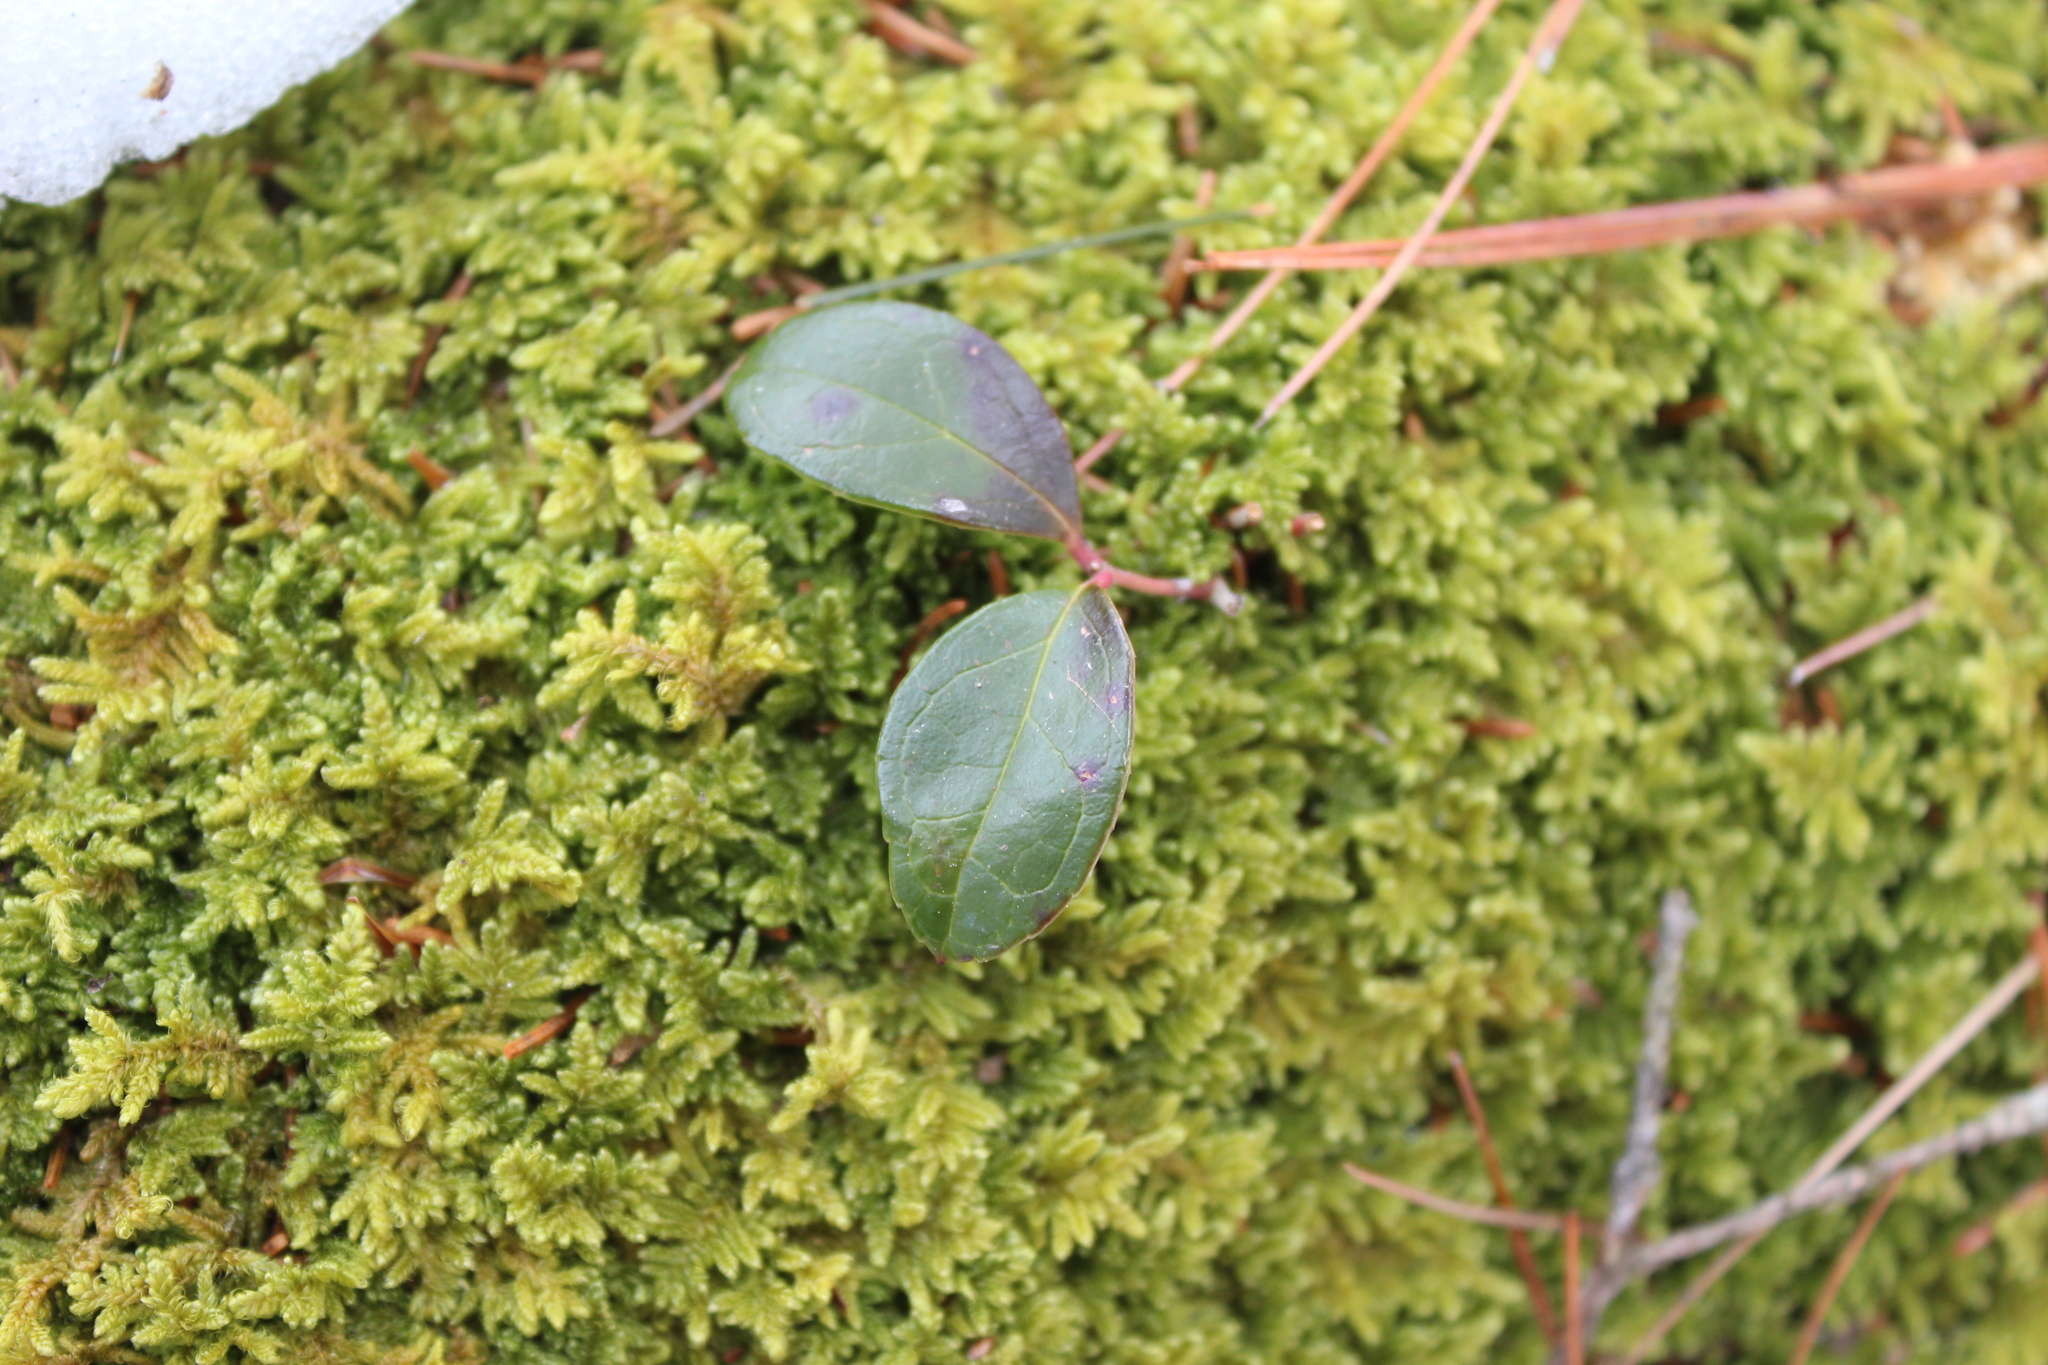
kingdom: Plantae
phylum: Tracheophyta
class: Magnoliopsida
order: Ericales
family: Ericaceae
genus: Gaultheria
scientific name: Gaultheria procumbens
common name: Checkerberry
